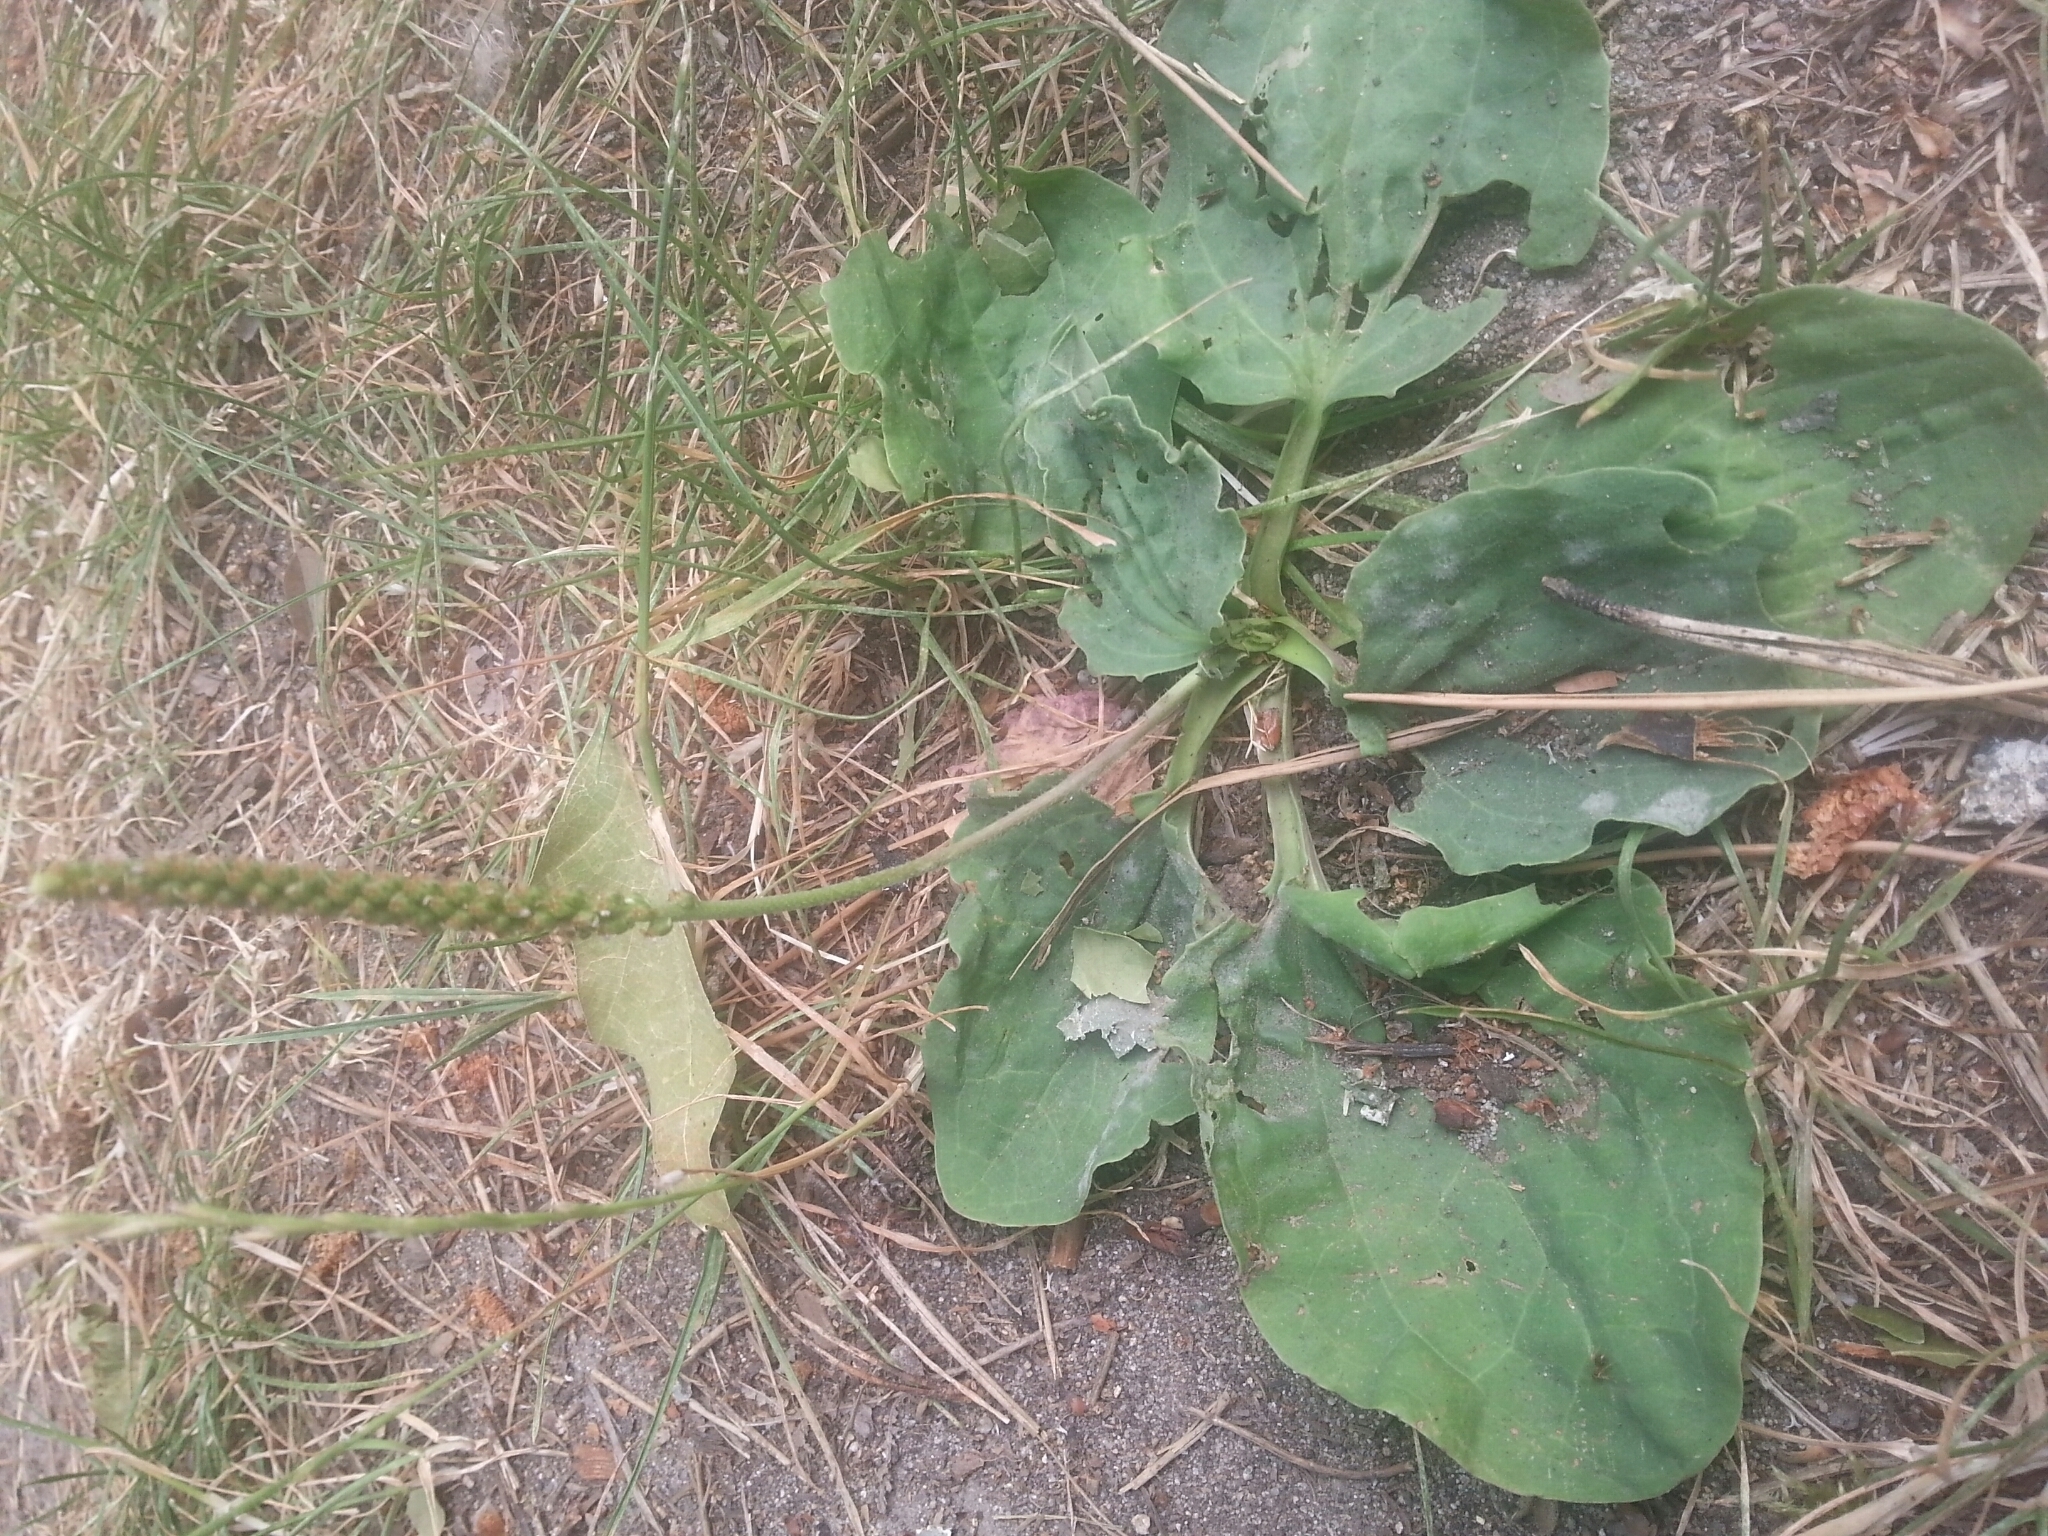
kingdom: Plantae
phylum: Tracheophyta
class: Magnoliopsida
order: Lamiales
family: Plantaginaceae
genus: Plantago
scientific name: Plantago major
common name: Common plantain
